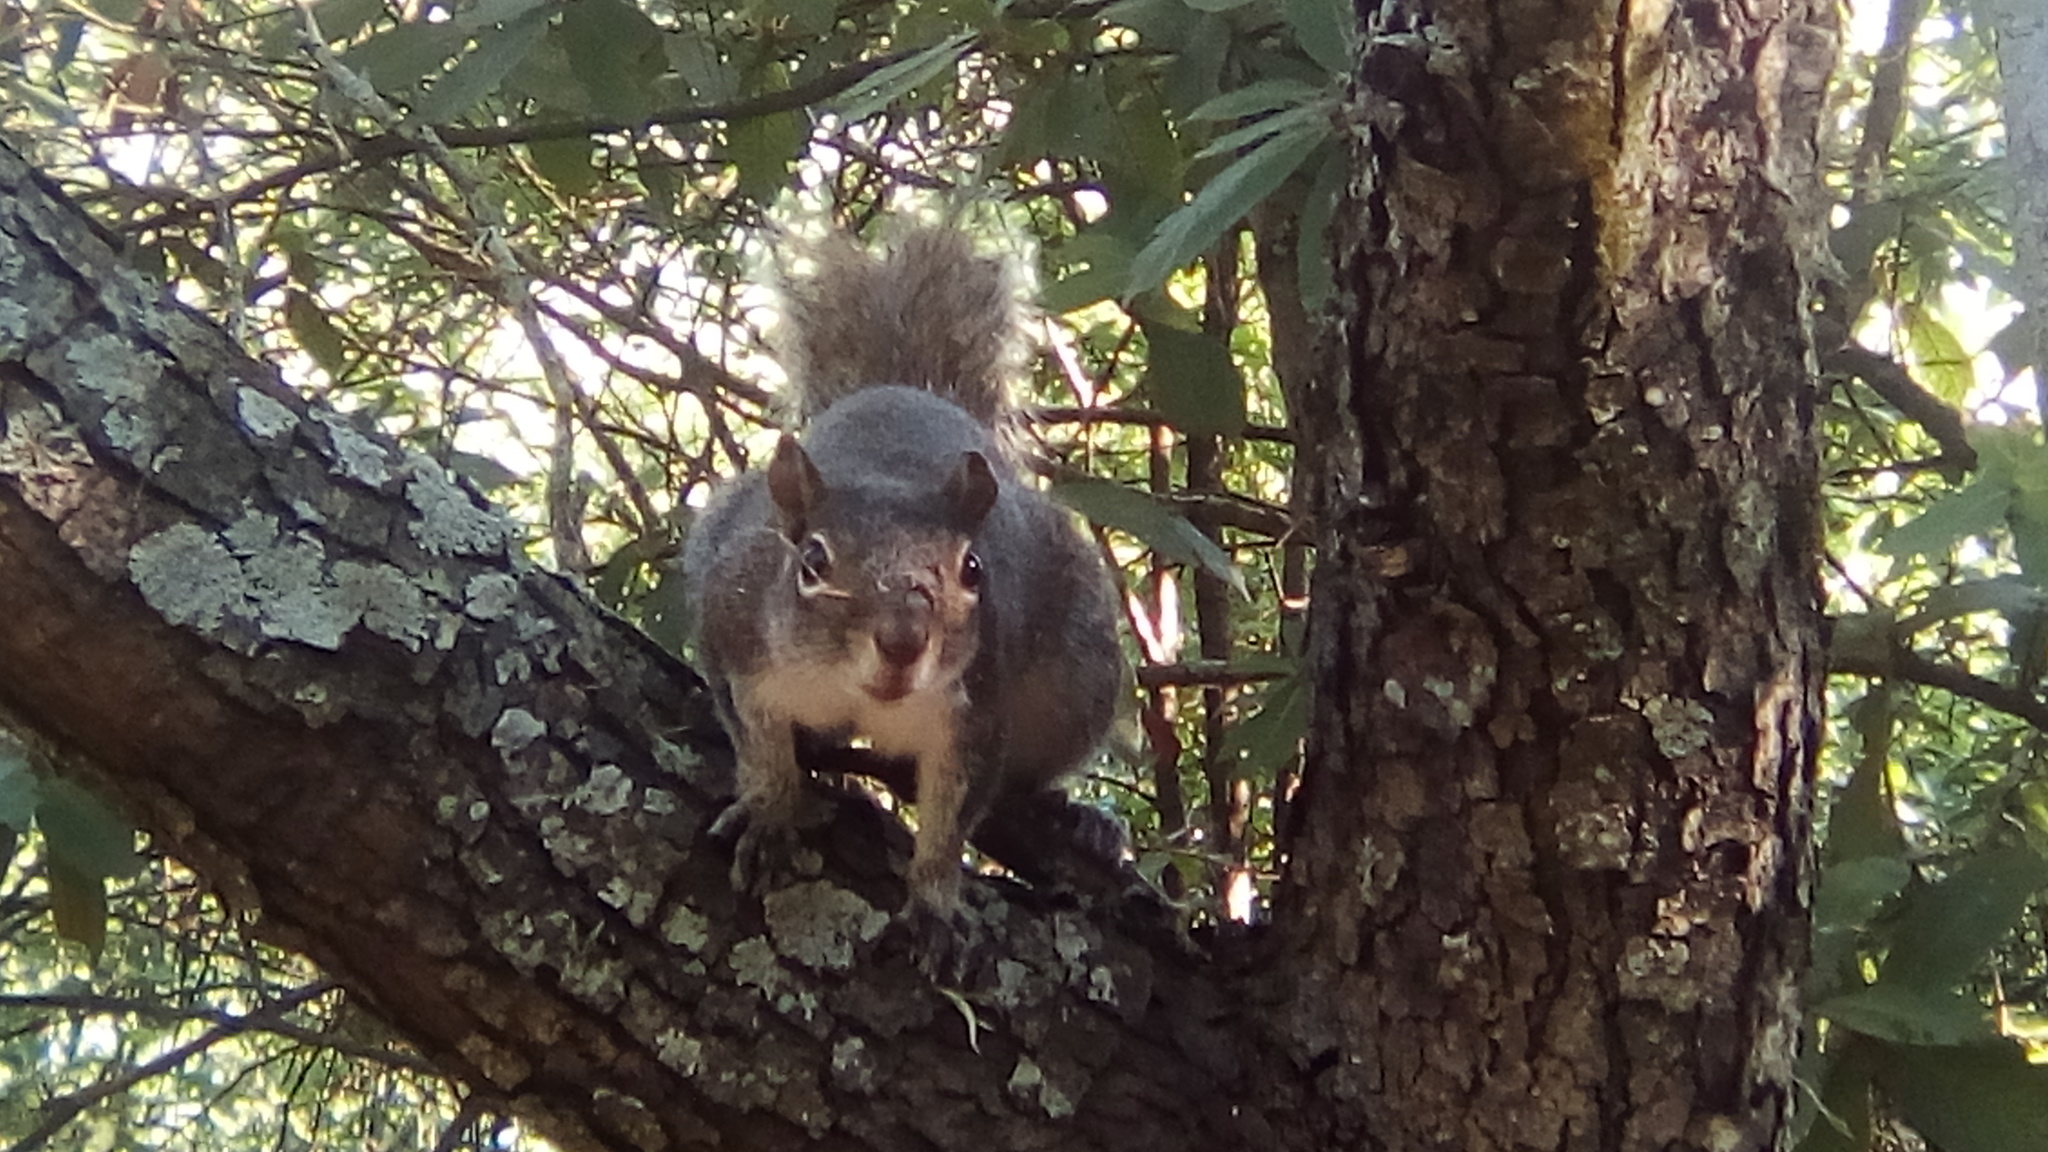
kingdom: Animalia
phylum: Chordata
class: Mammalia
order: Rodentia
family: Sciuridae
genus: Sciurus
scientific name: Sciurus alleni
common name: Allen's squirrel
